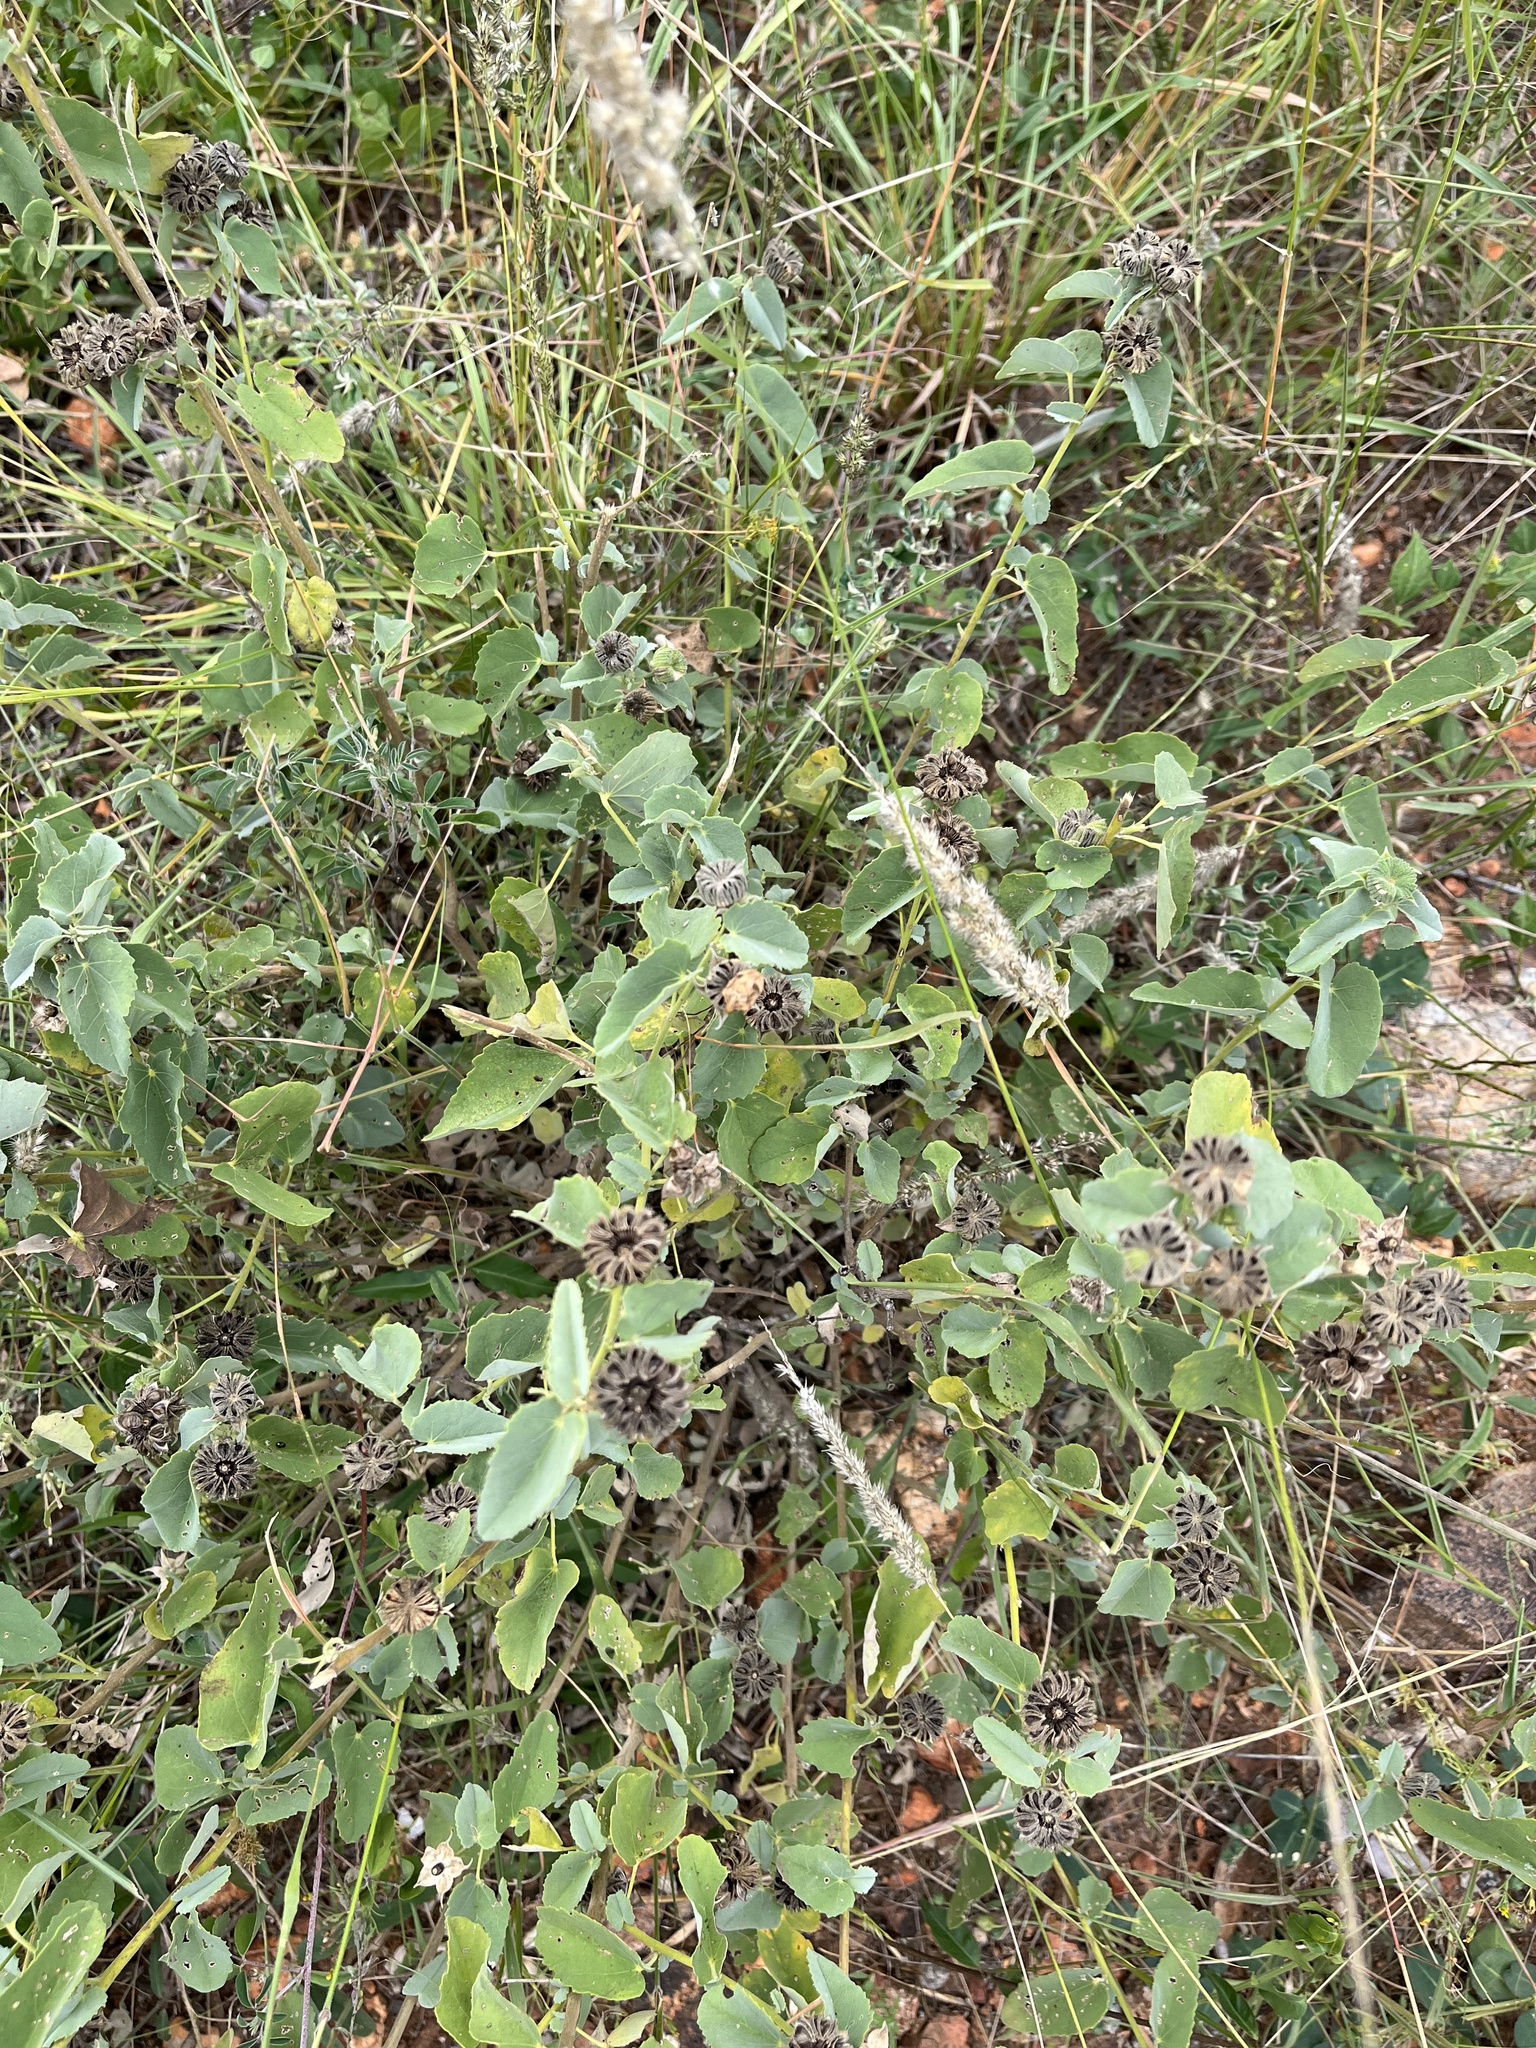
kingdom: Plantae
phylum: Tracheophyta
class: Magnoliopsida
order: Malvales
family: Malvaceae
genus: Abutilon
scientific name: Abutilon austroafricanum
